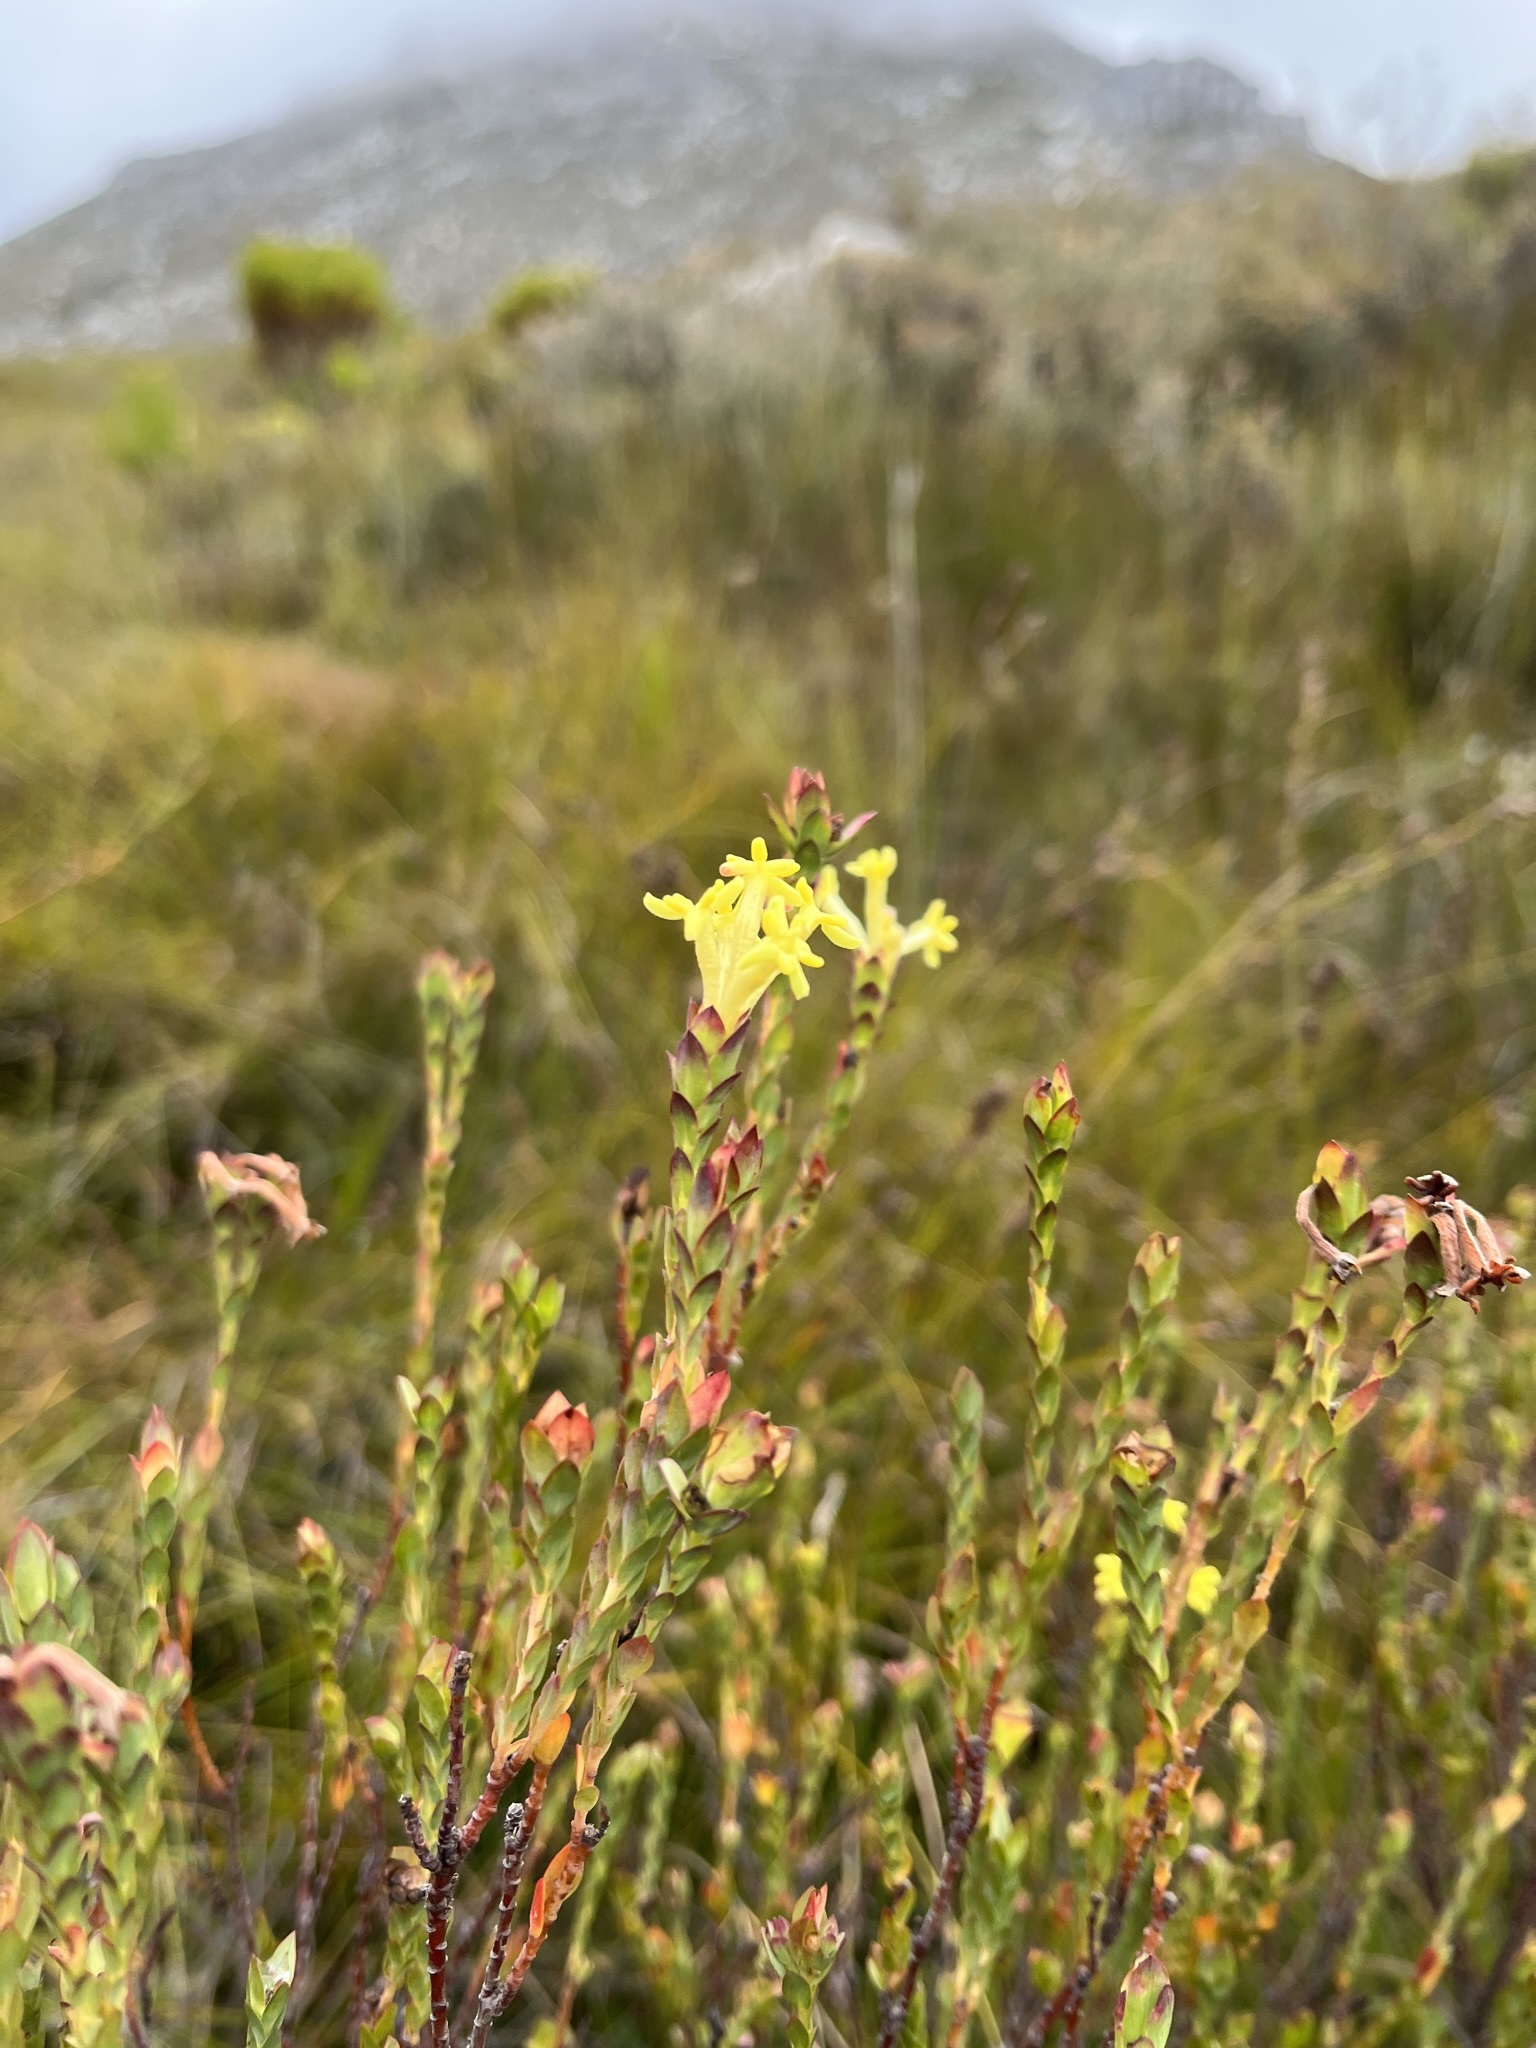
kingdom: Plantae
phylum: Tracheophyta
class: Magnoliopsida
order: Malvales
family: Thymelaeaceae
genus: Gnidia
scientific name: Gnidia oppositifolia
